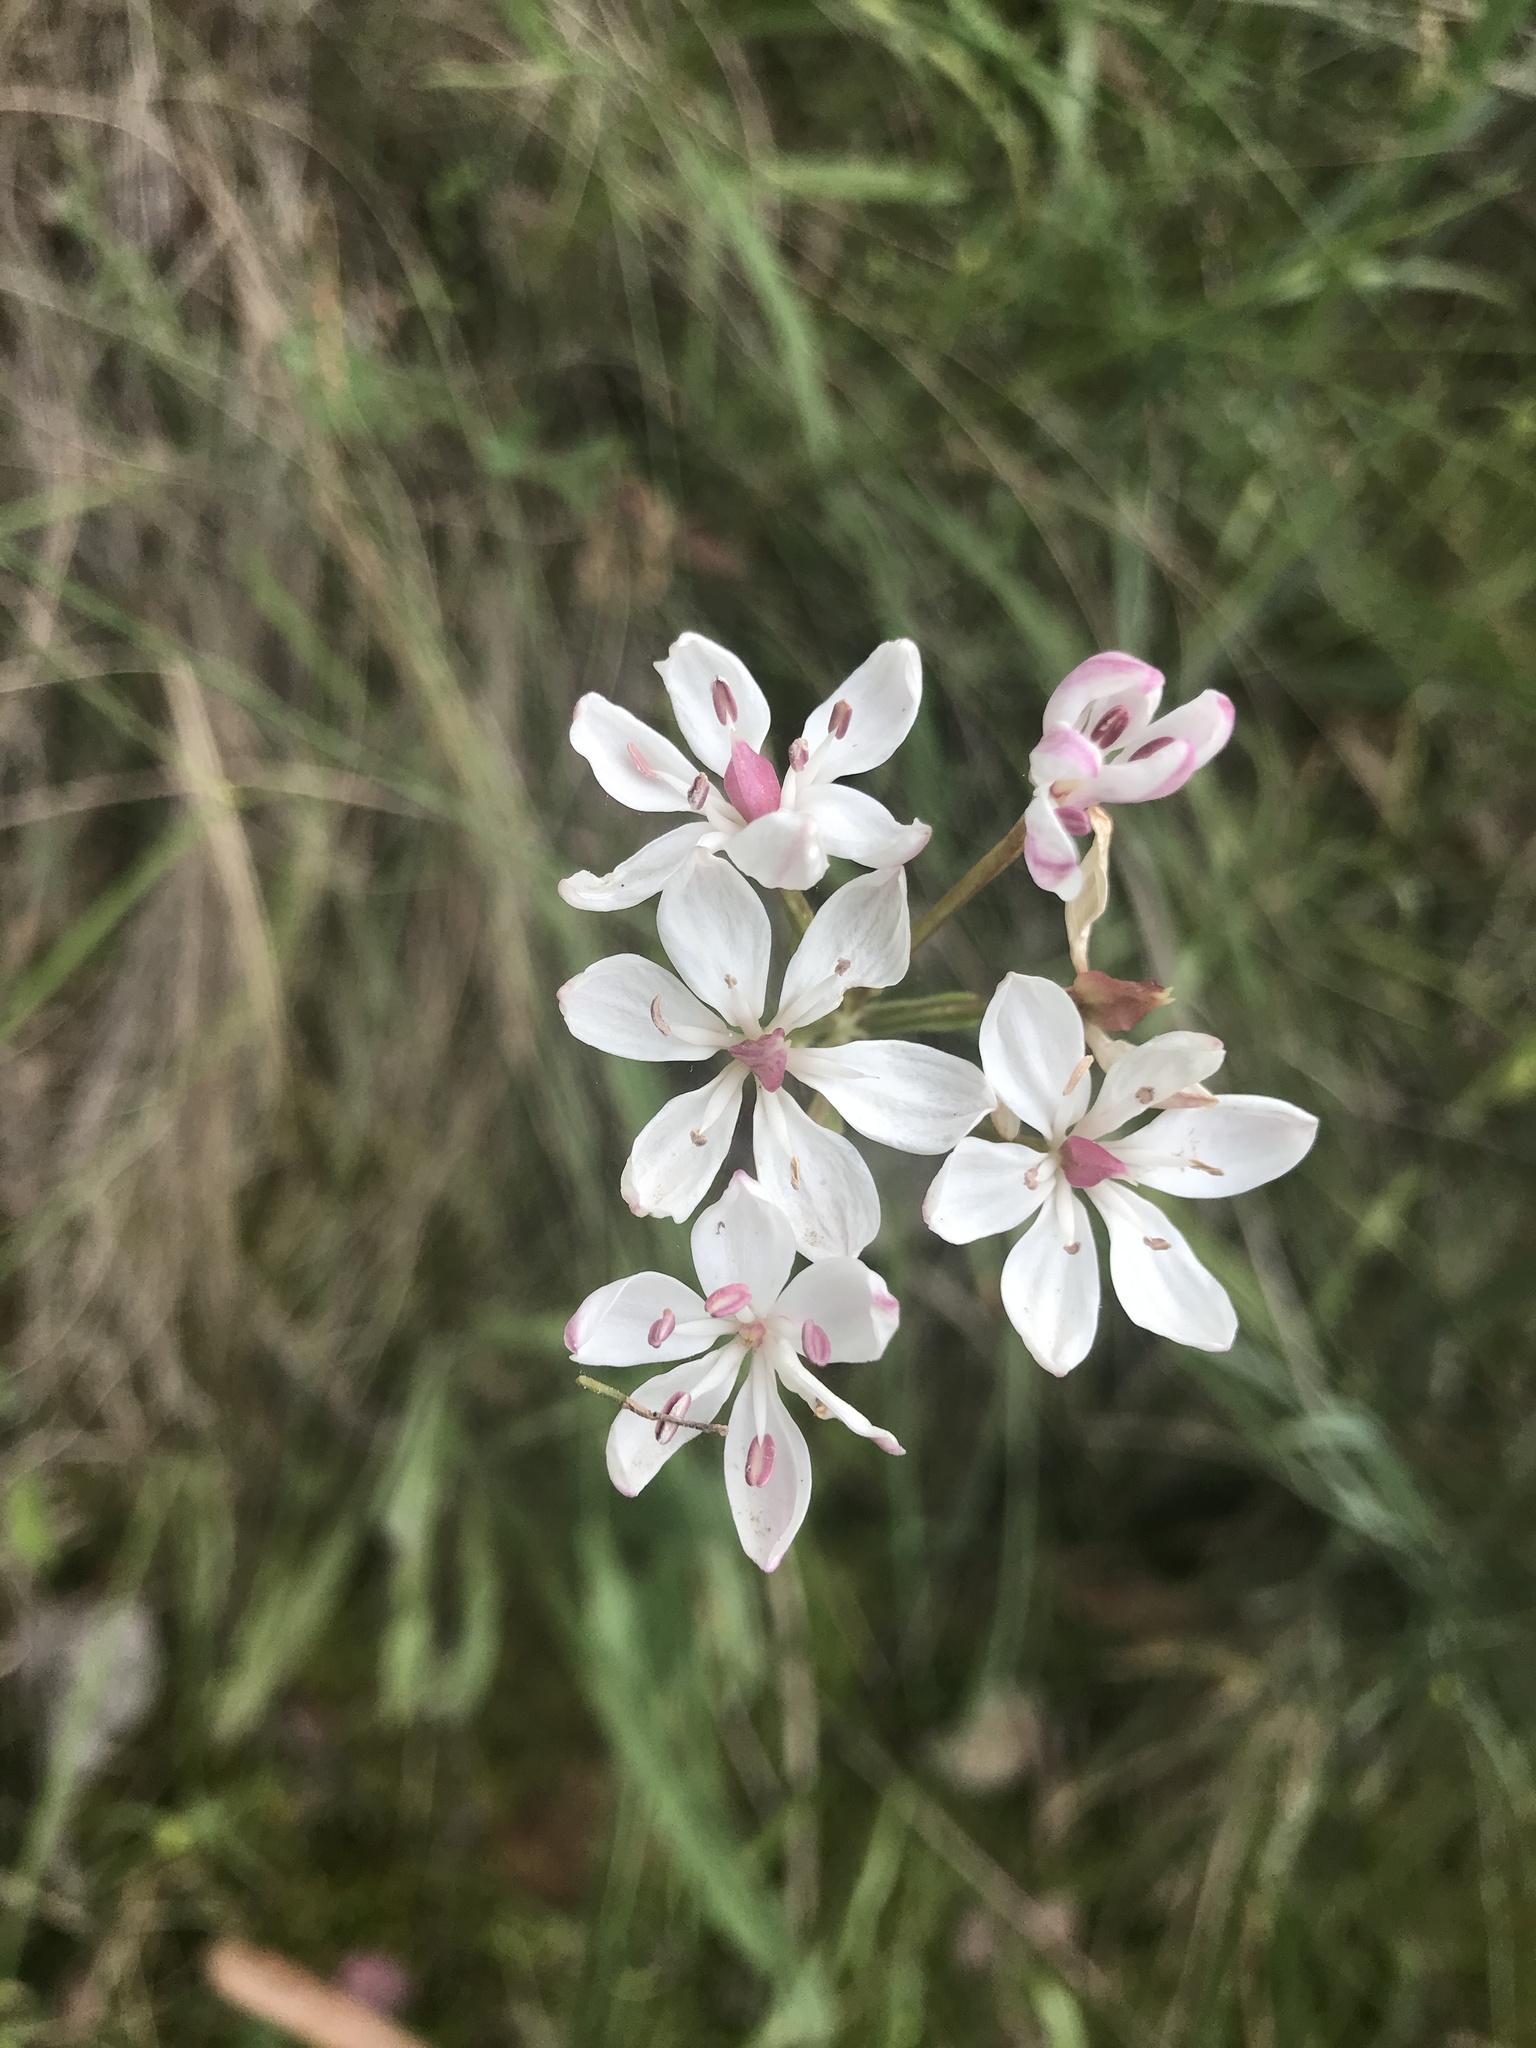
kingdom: Plantae
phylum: Tracheophyta
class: Liliopsida
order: Liliales
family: Colchicaceae
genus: Burchardia
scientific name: Burchardia umbellata
